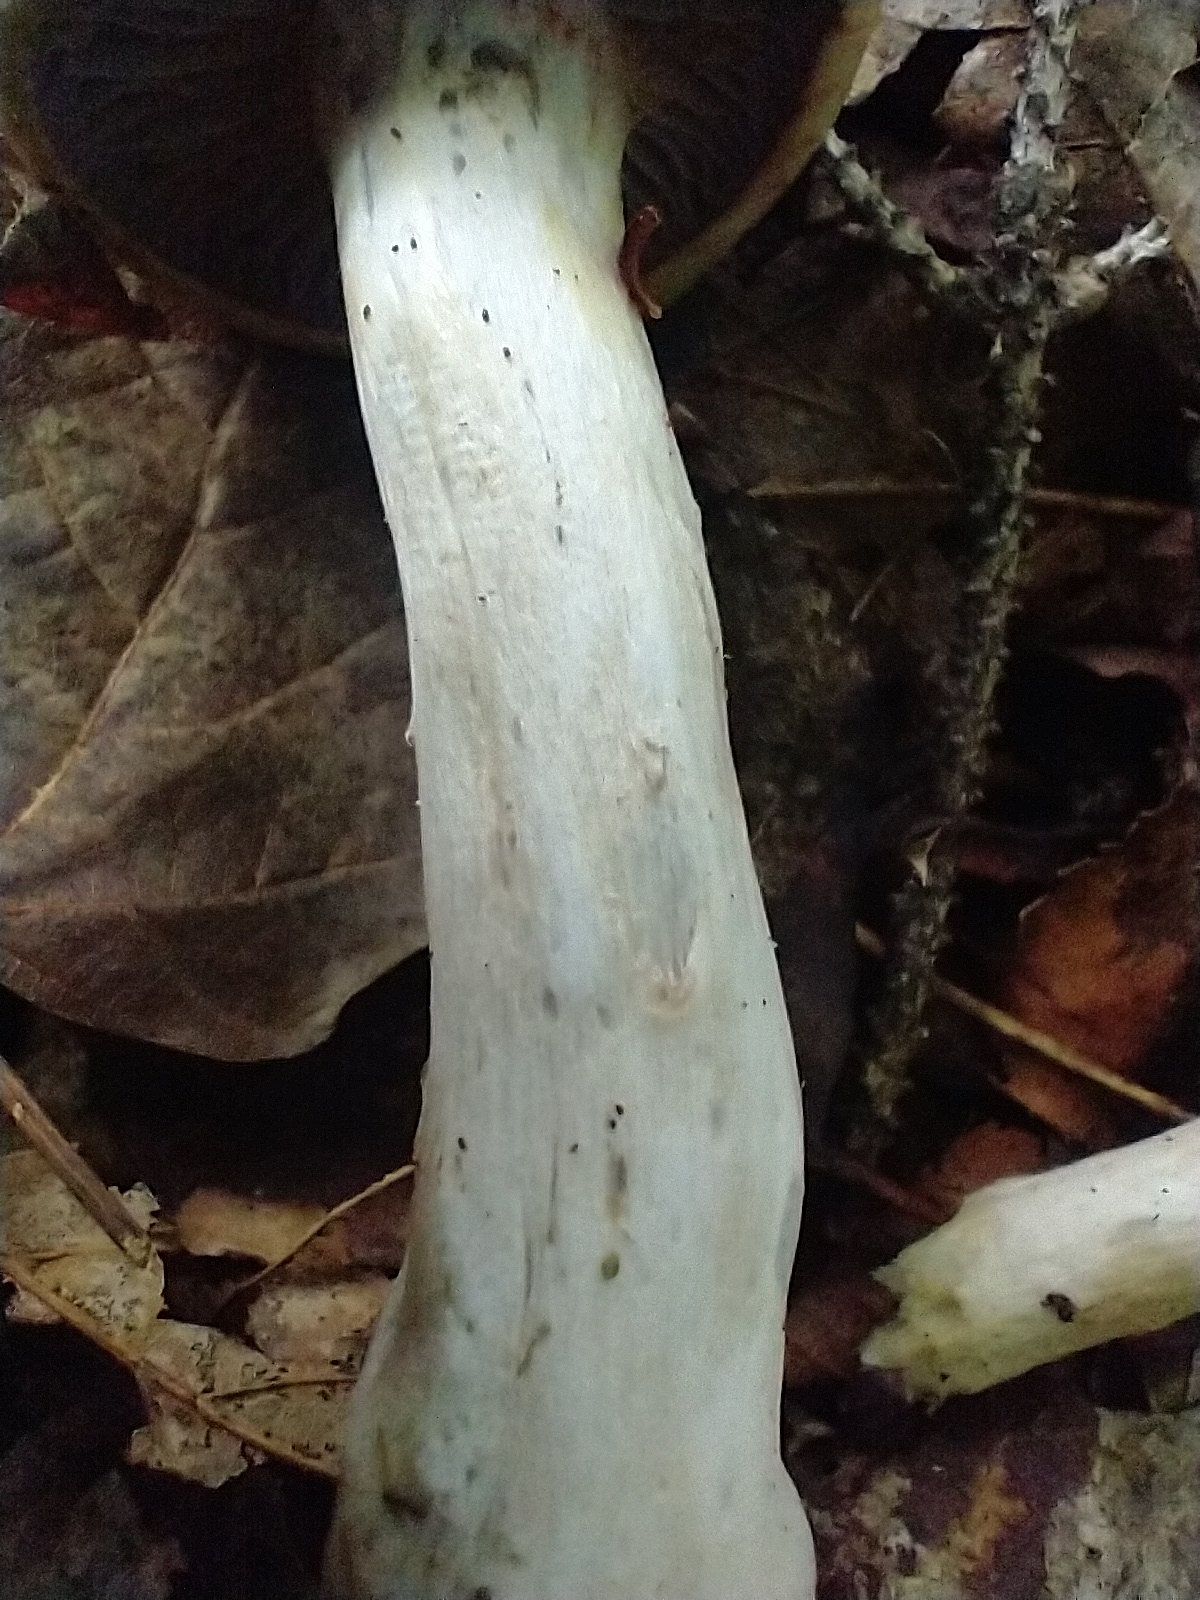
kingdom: Fungi
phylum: Basidiomycota
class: Agaricomycetes
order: Agaricales
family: Cortinariaceae
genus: Phlegmacium
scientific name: Phlegmacium argutum
